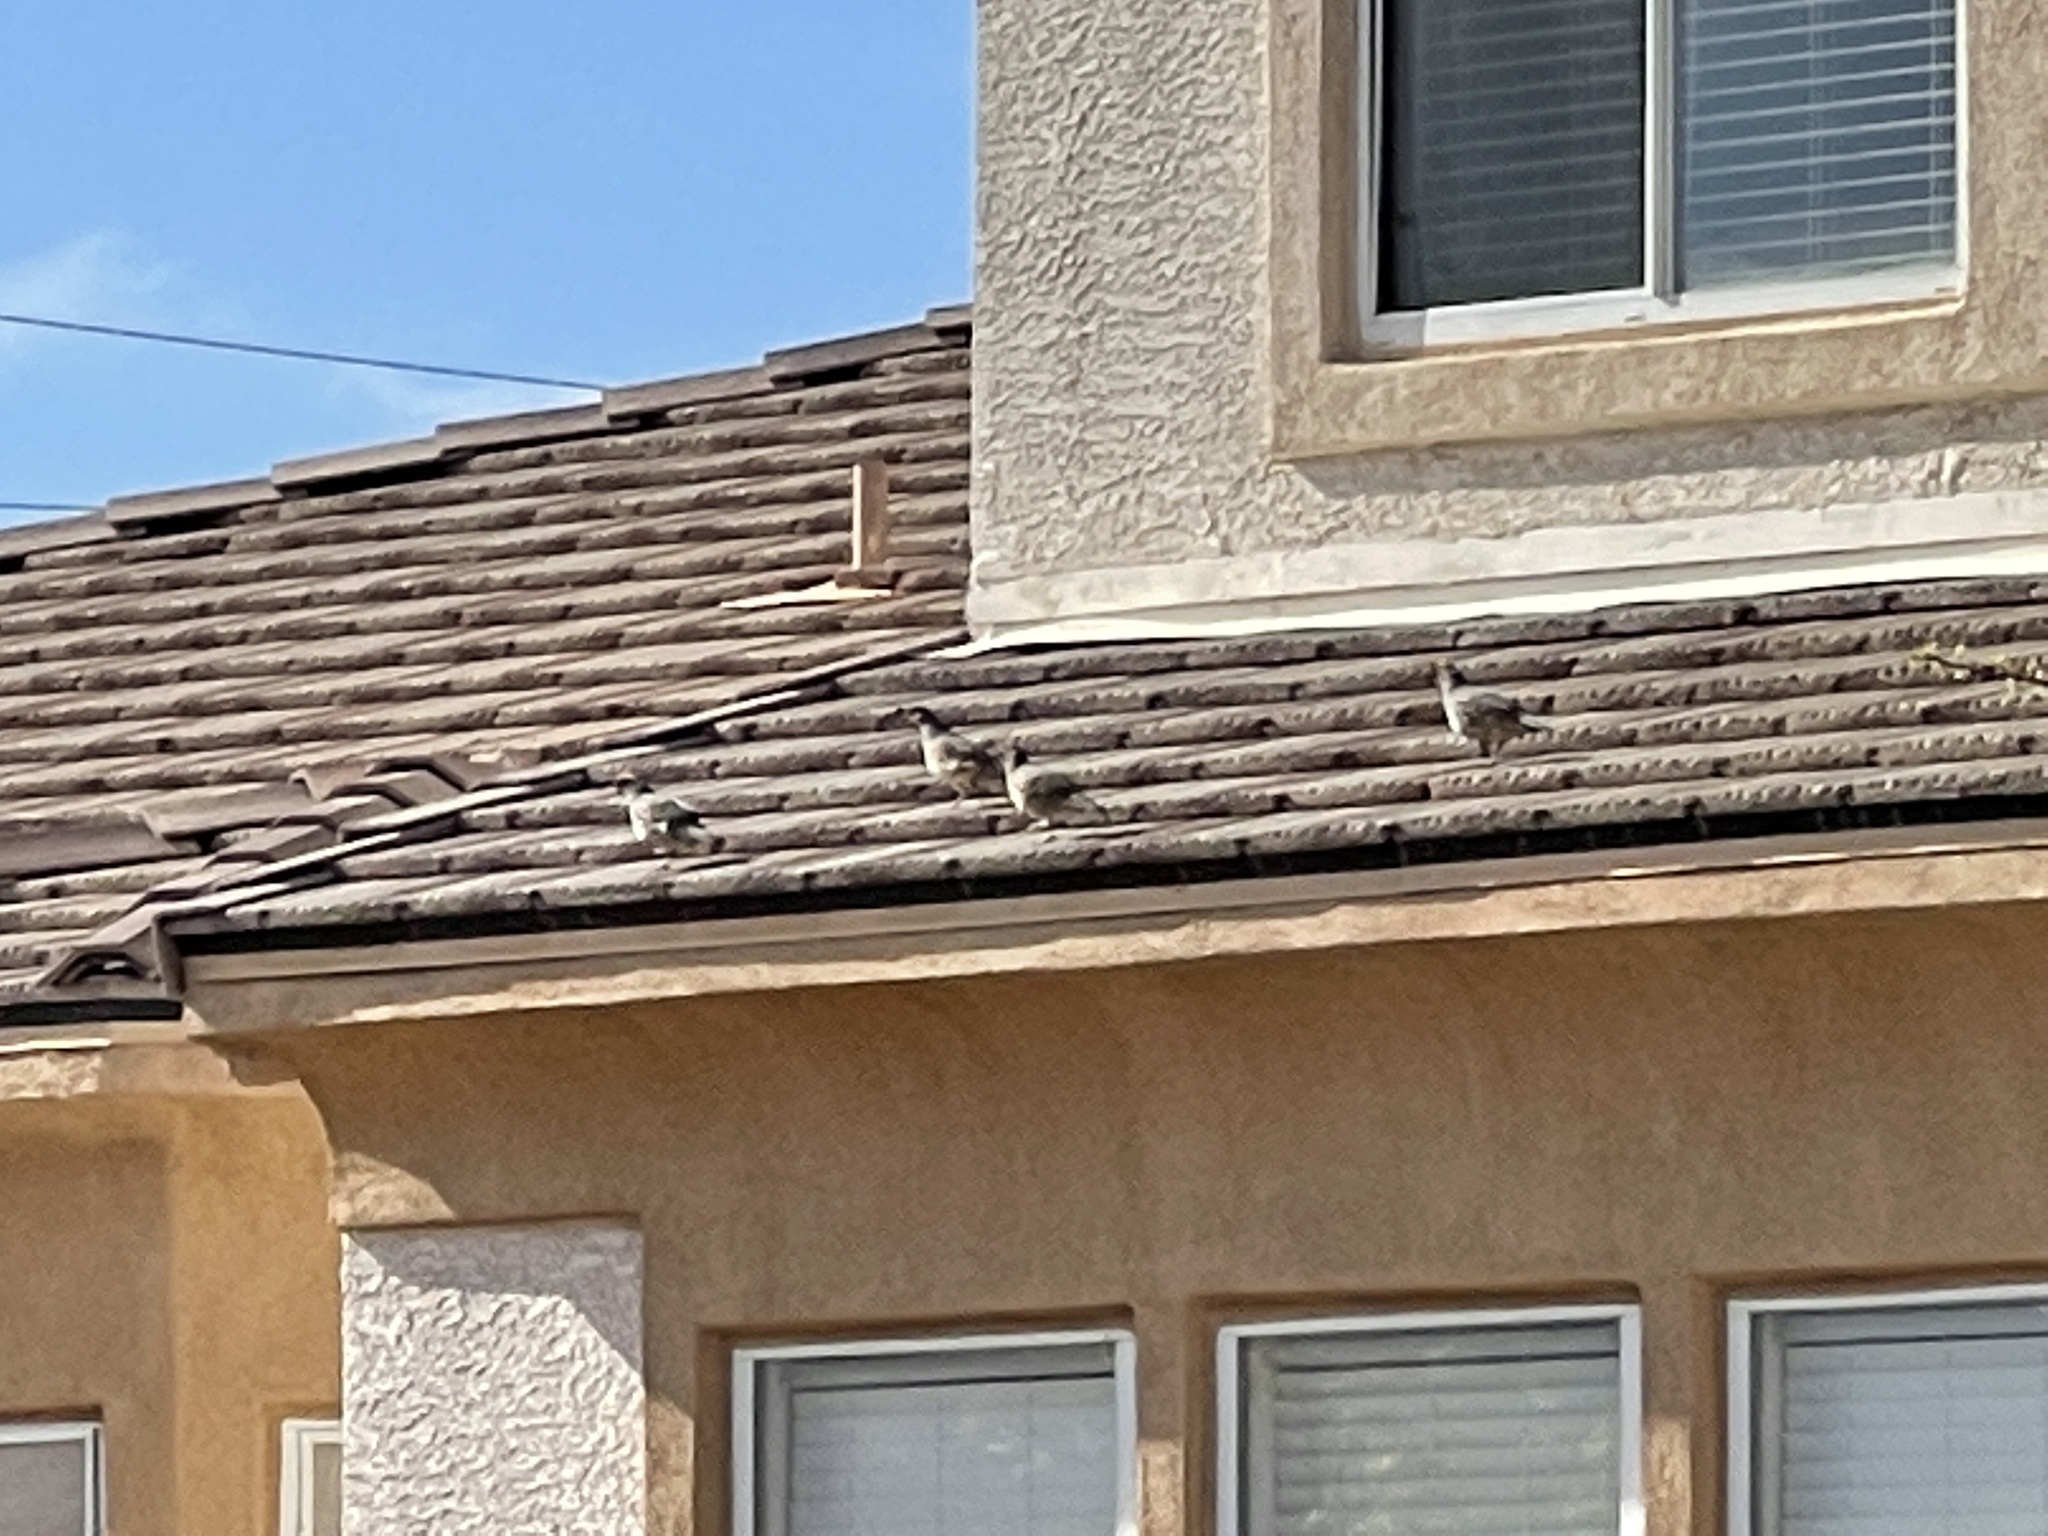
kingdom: Animalia
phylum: Chordata
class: Aves
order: Galliformes
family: Odontophoridae
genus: Callipepla
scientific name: Callipepla gambelii
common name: Gambel's quail
